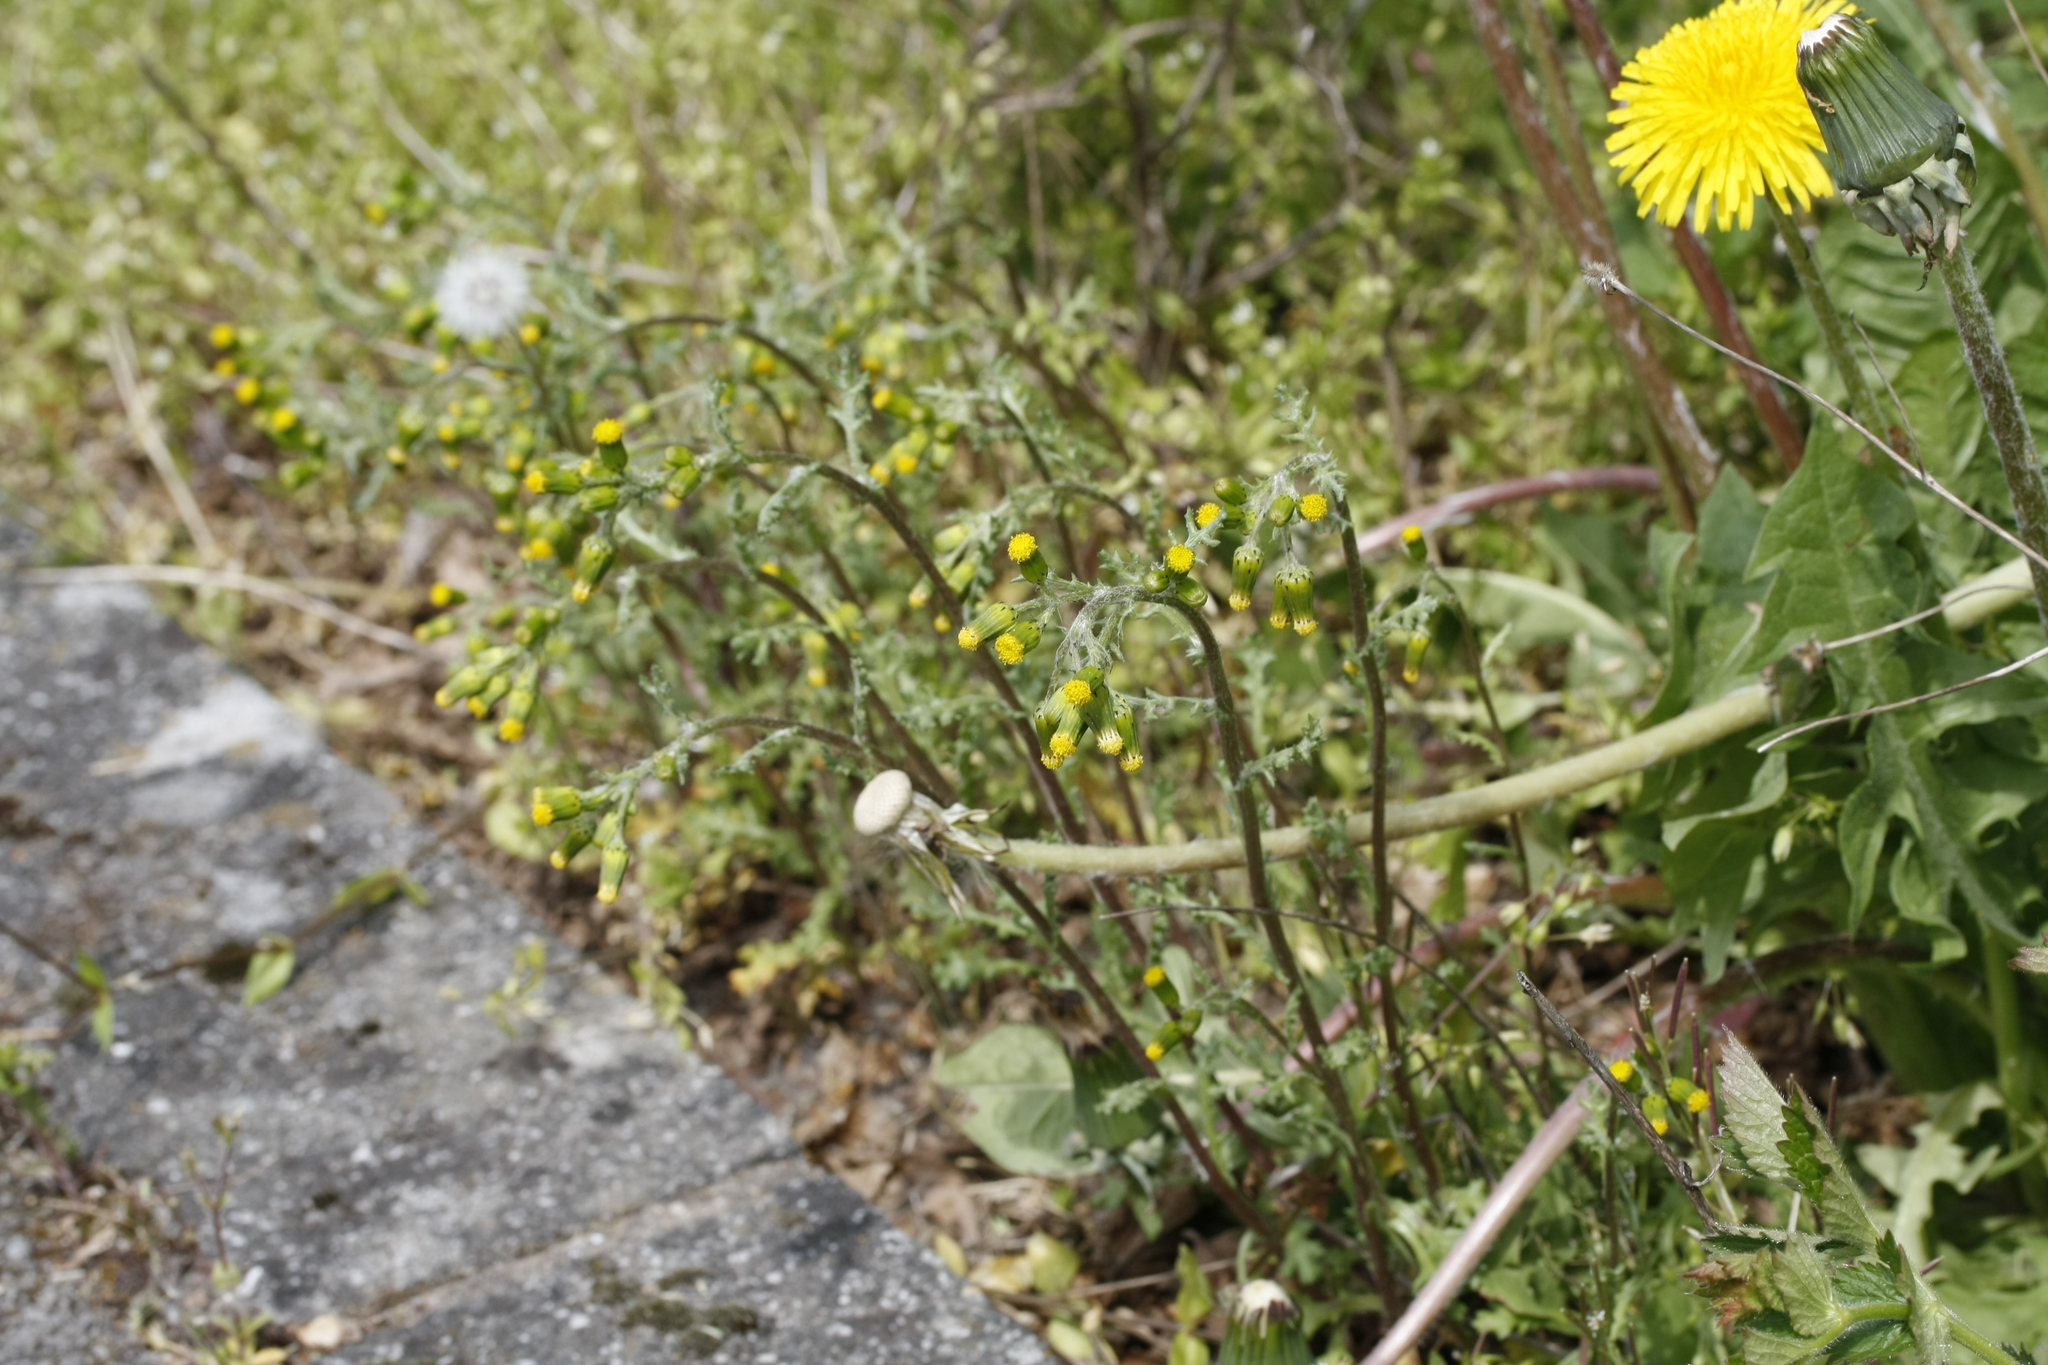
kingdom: Plantae
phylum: Tracheophyta
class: Magnoliopsida
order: Asterales
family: Asteraceae
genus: Senecio
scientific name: Senecio vulgaris
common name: Old-man-in-the-spring
